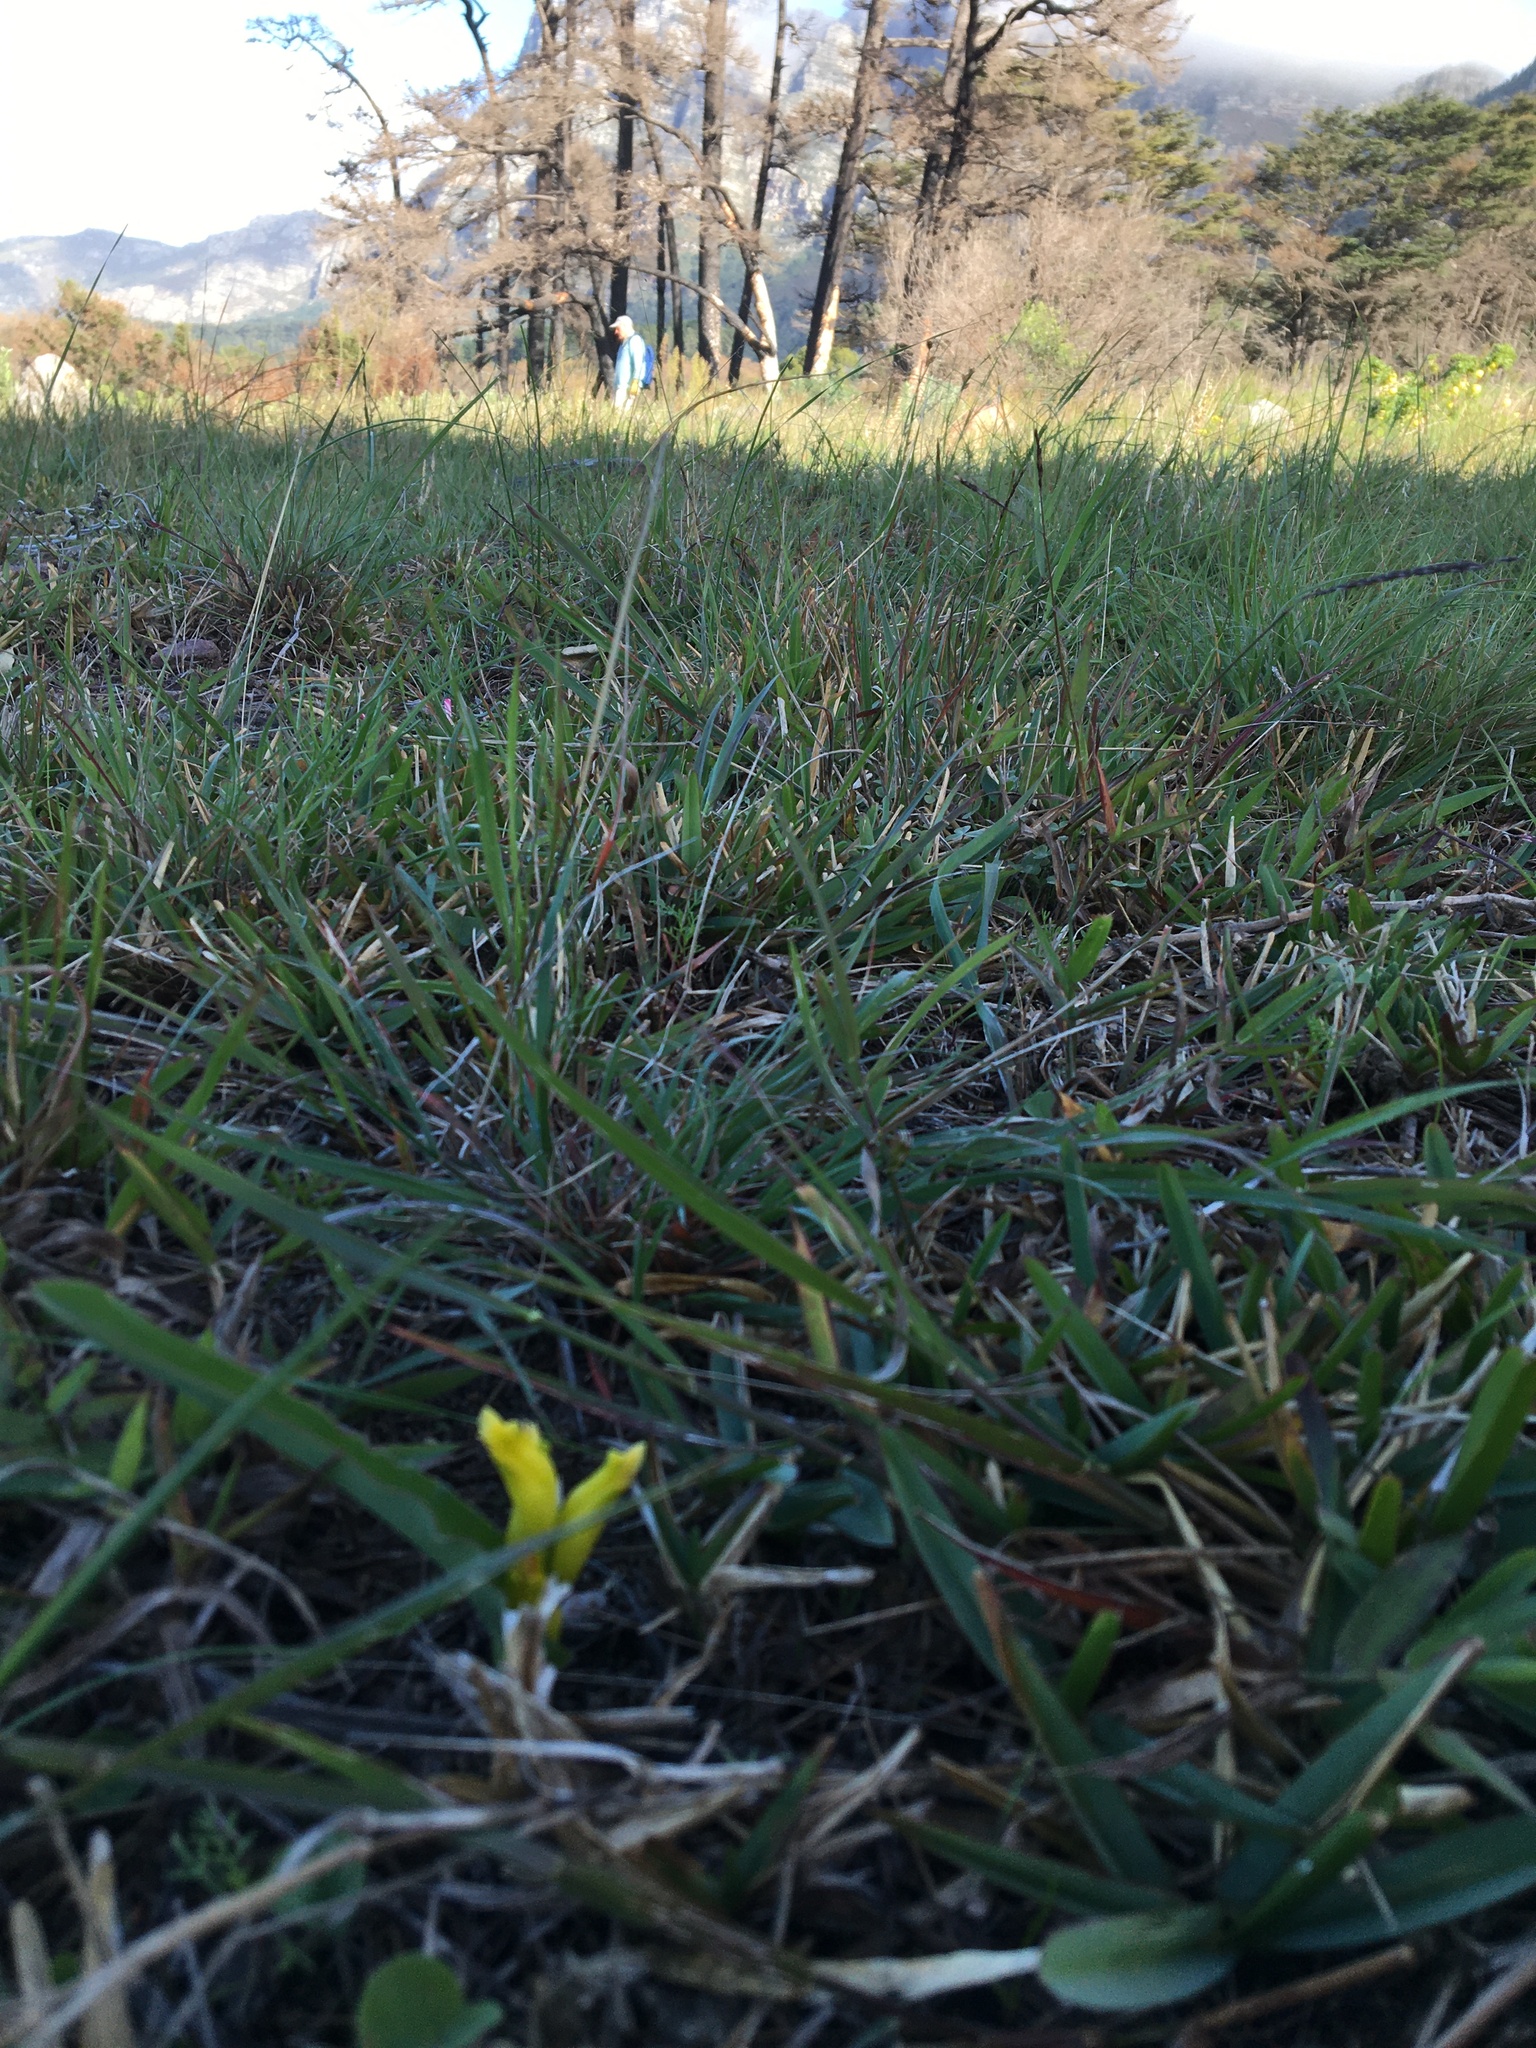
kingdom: Plantae
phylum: Tracheophyta
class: Liliopsida
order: Asparagales
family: Asparagaceae
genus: Lachenalia
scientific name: Lachenalia reflexa
